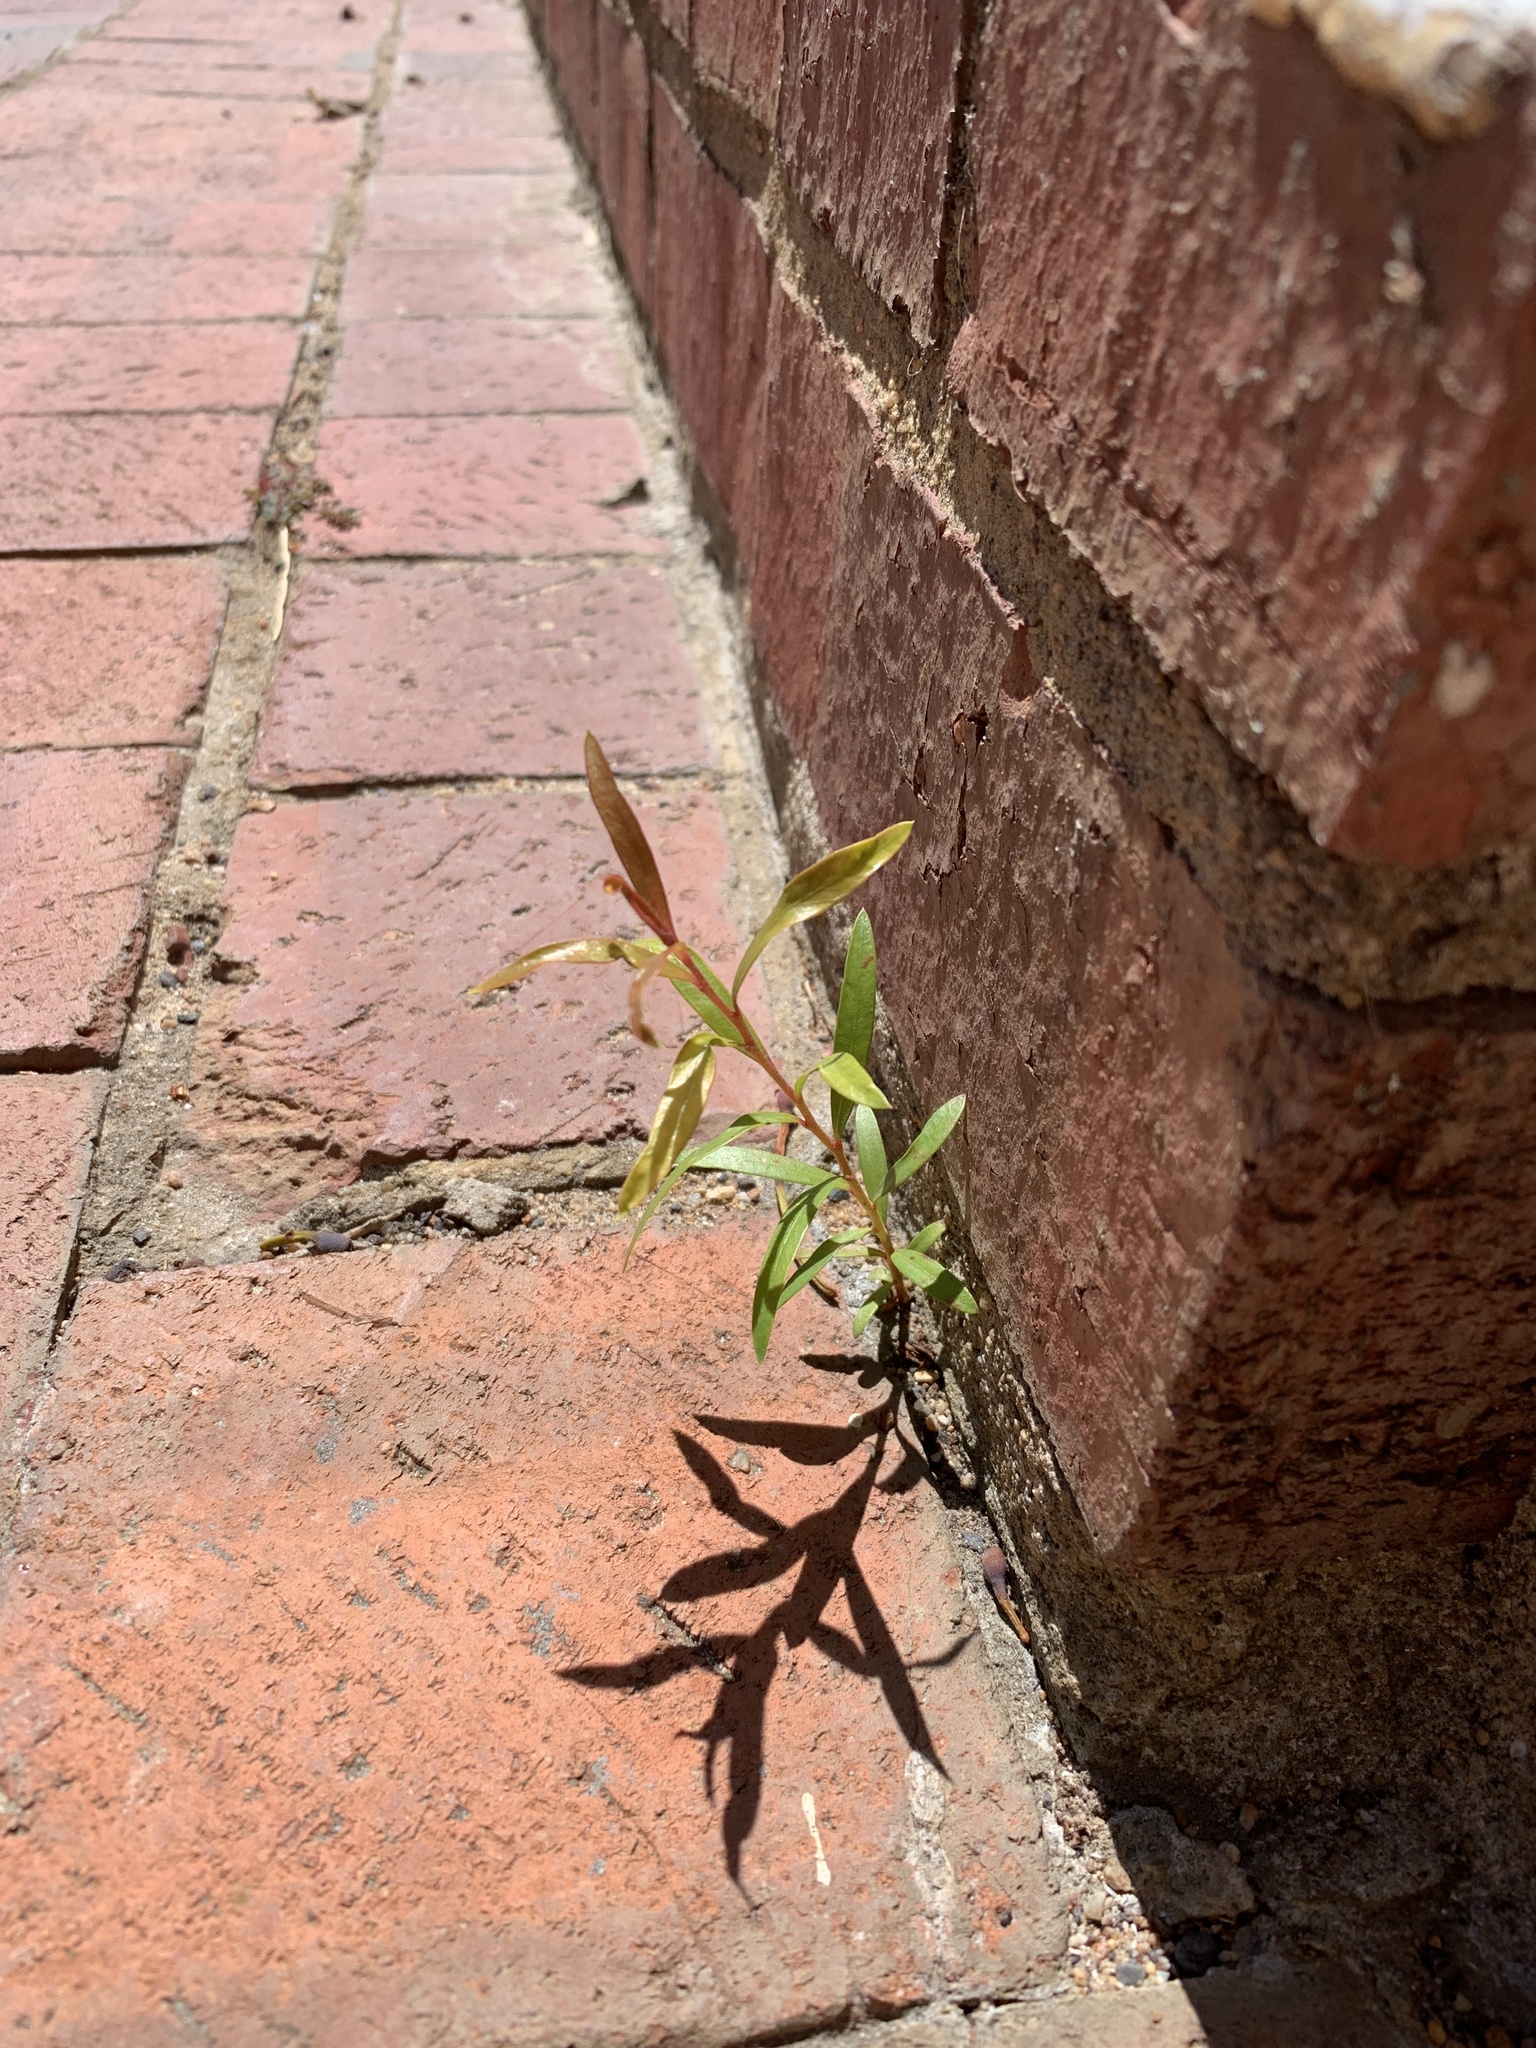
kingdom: Plantae
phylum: Tracheophyta
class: Magnoliopsida
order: Myrtales
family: Myrtaceae
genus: Callistemon
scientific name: Callistemon viminalis
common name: Drooping bottlebrush
